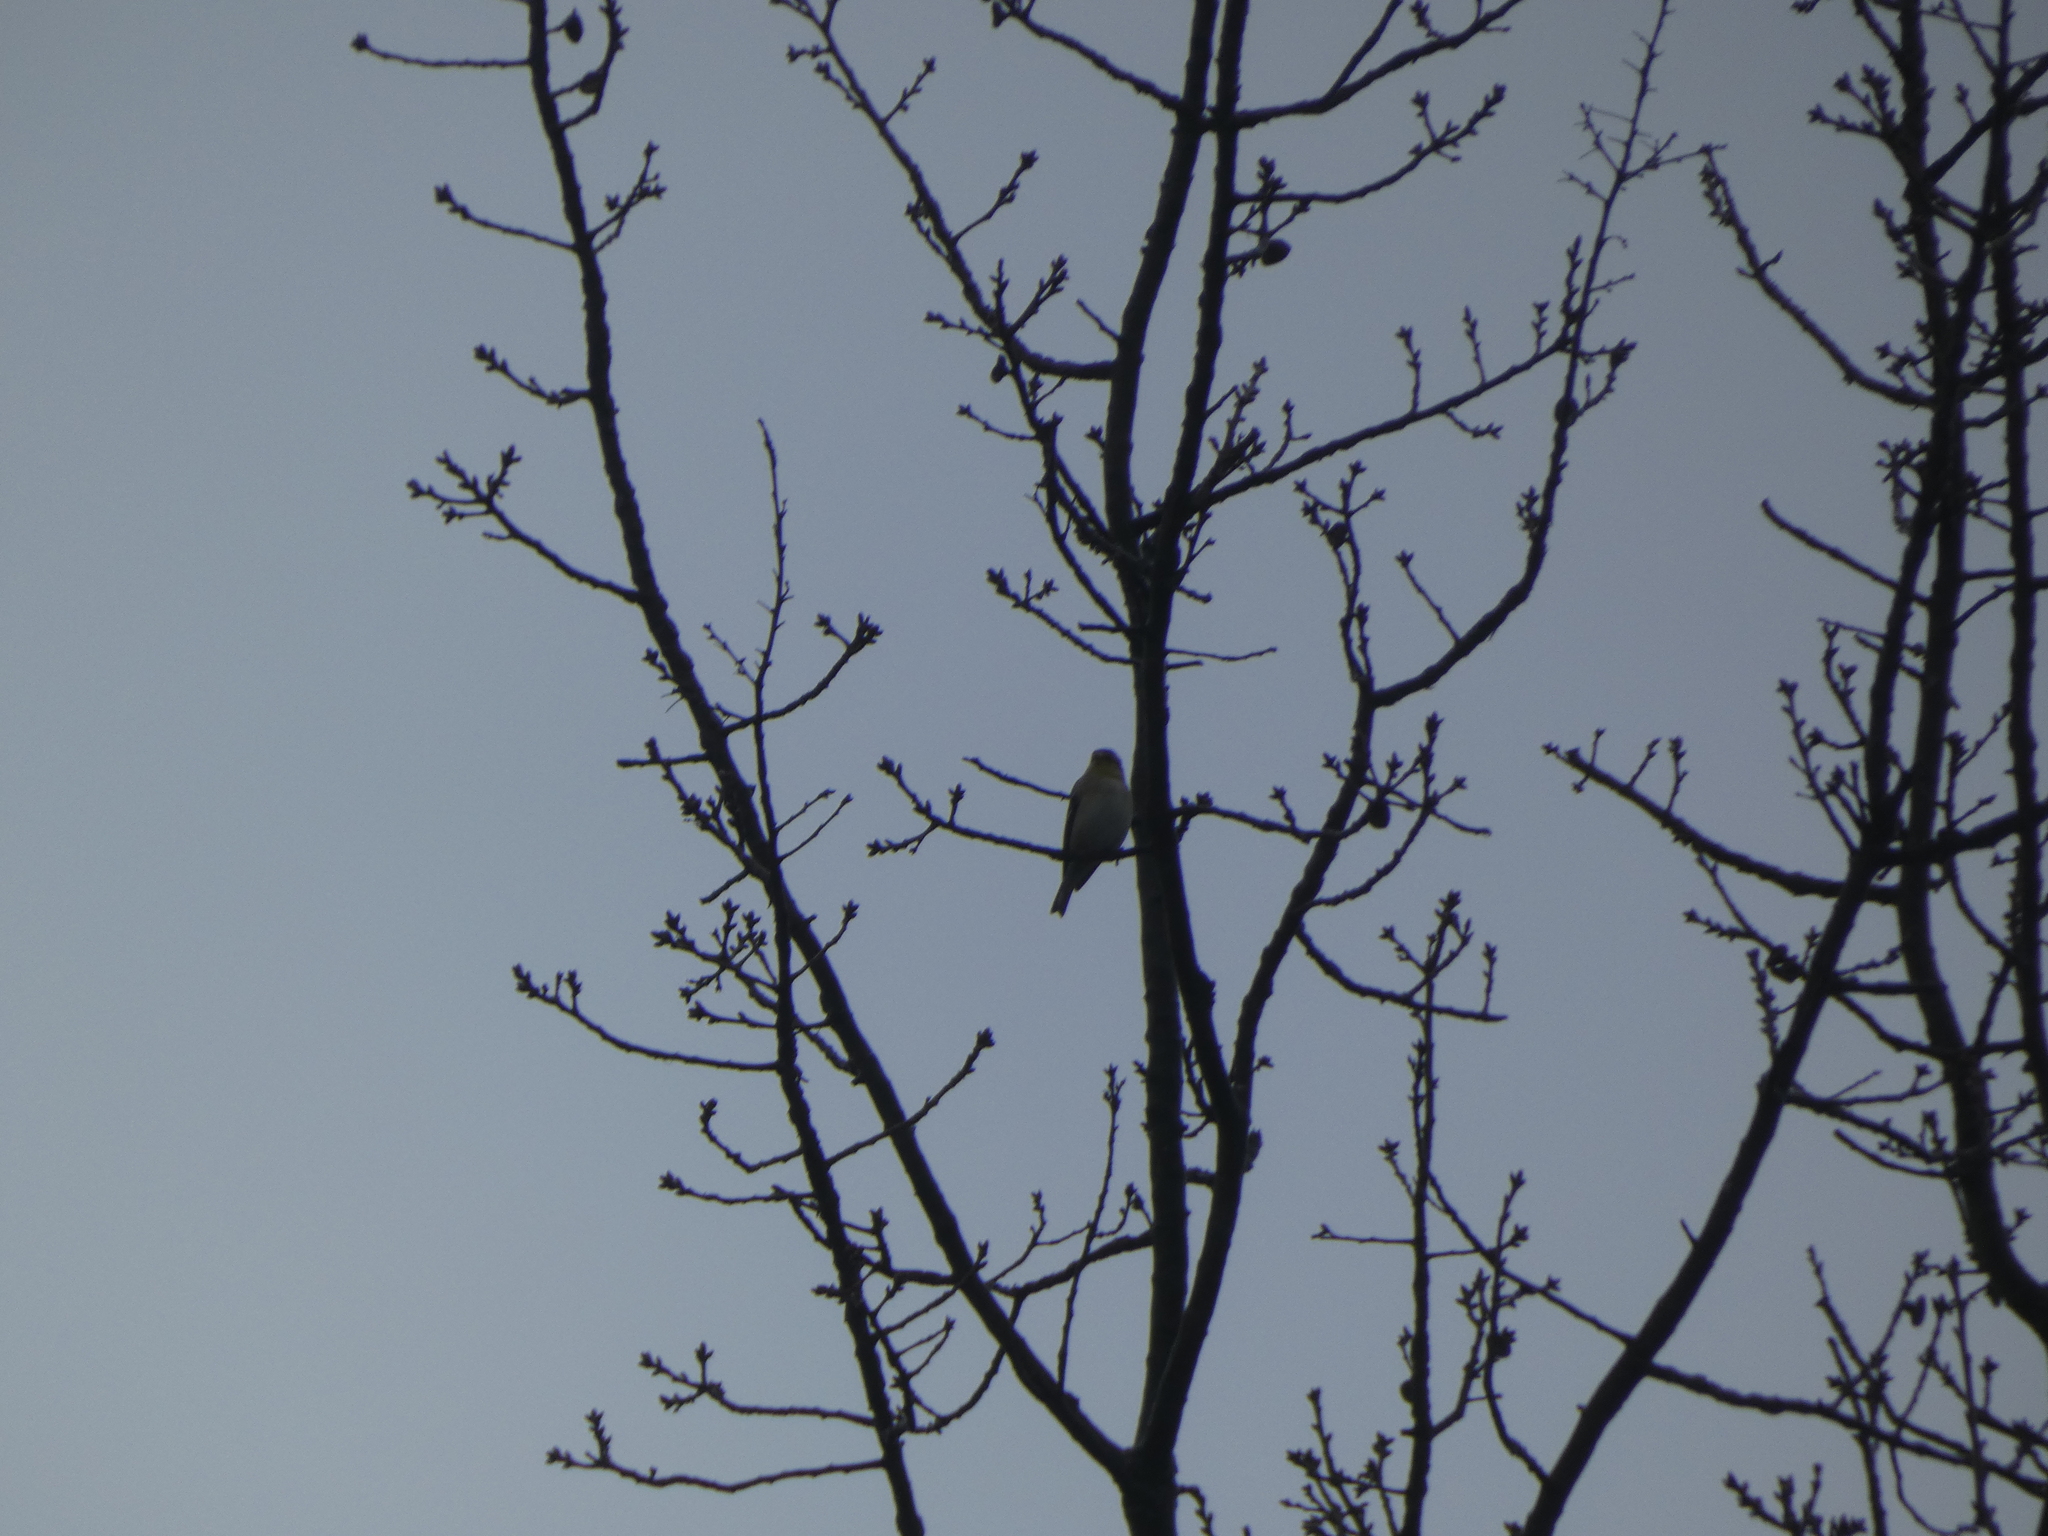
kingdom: Animalia
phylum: Chordata
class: Aves
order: Passeriformes
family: Fringillidae
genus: Spinus
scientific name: Spinus tristis
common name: American goldfinch
